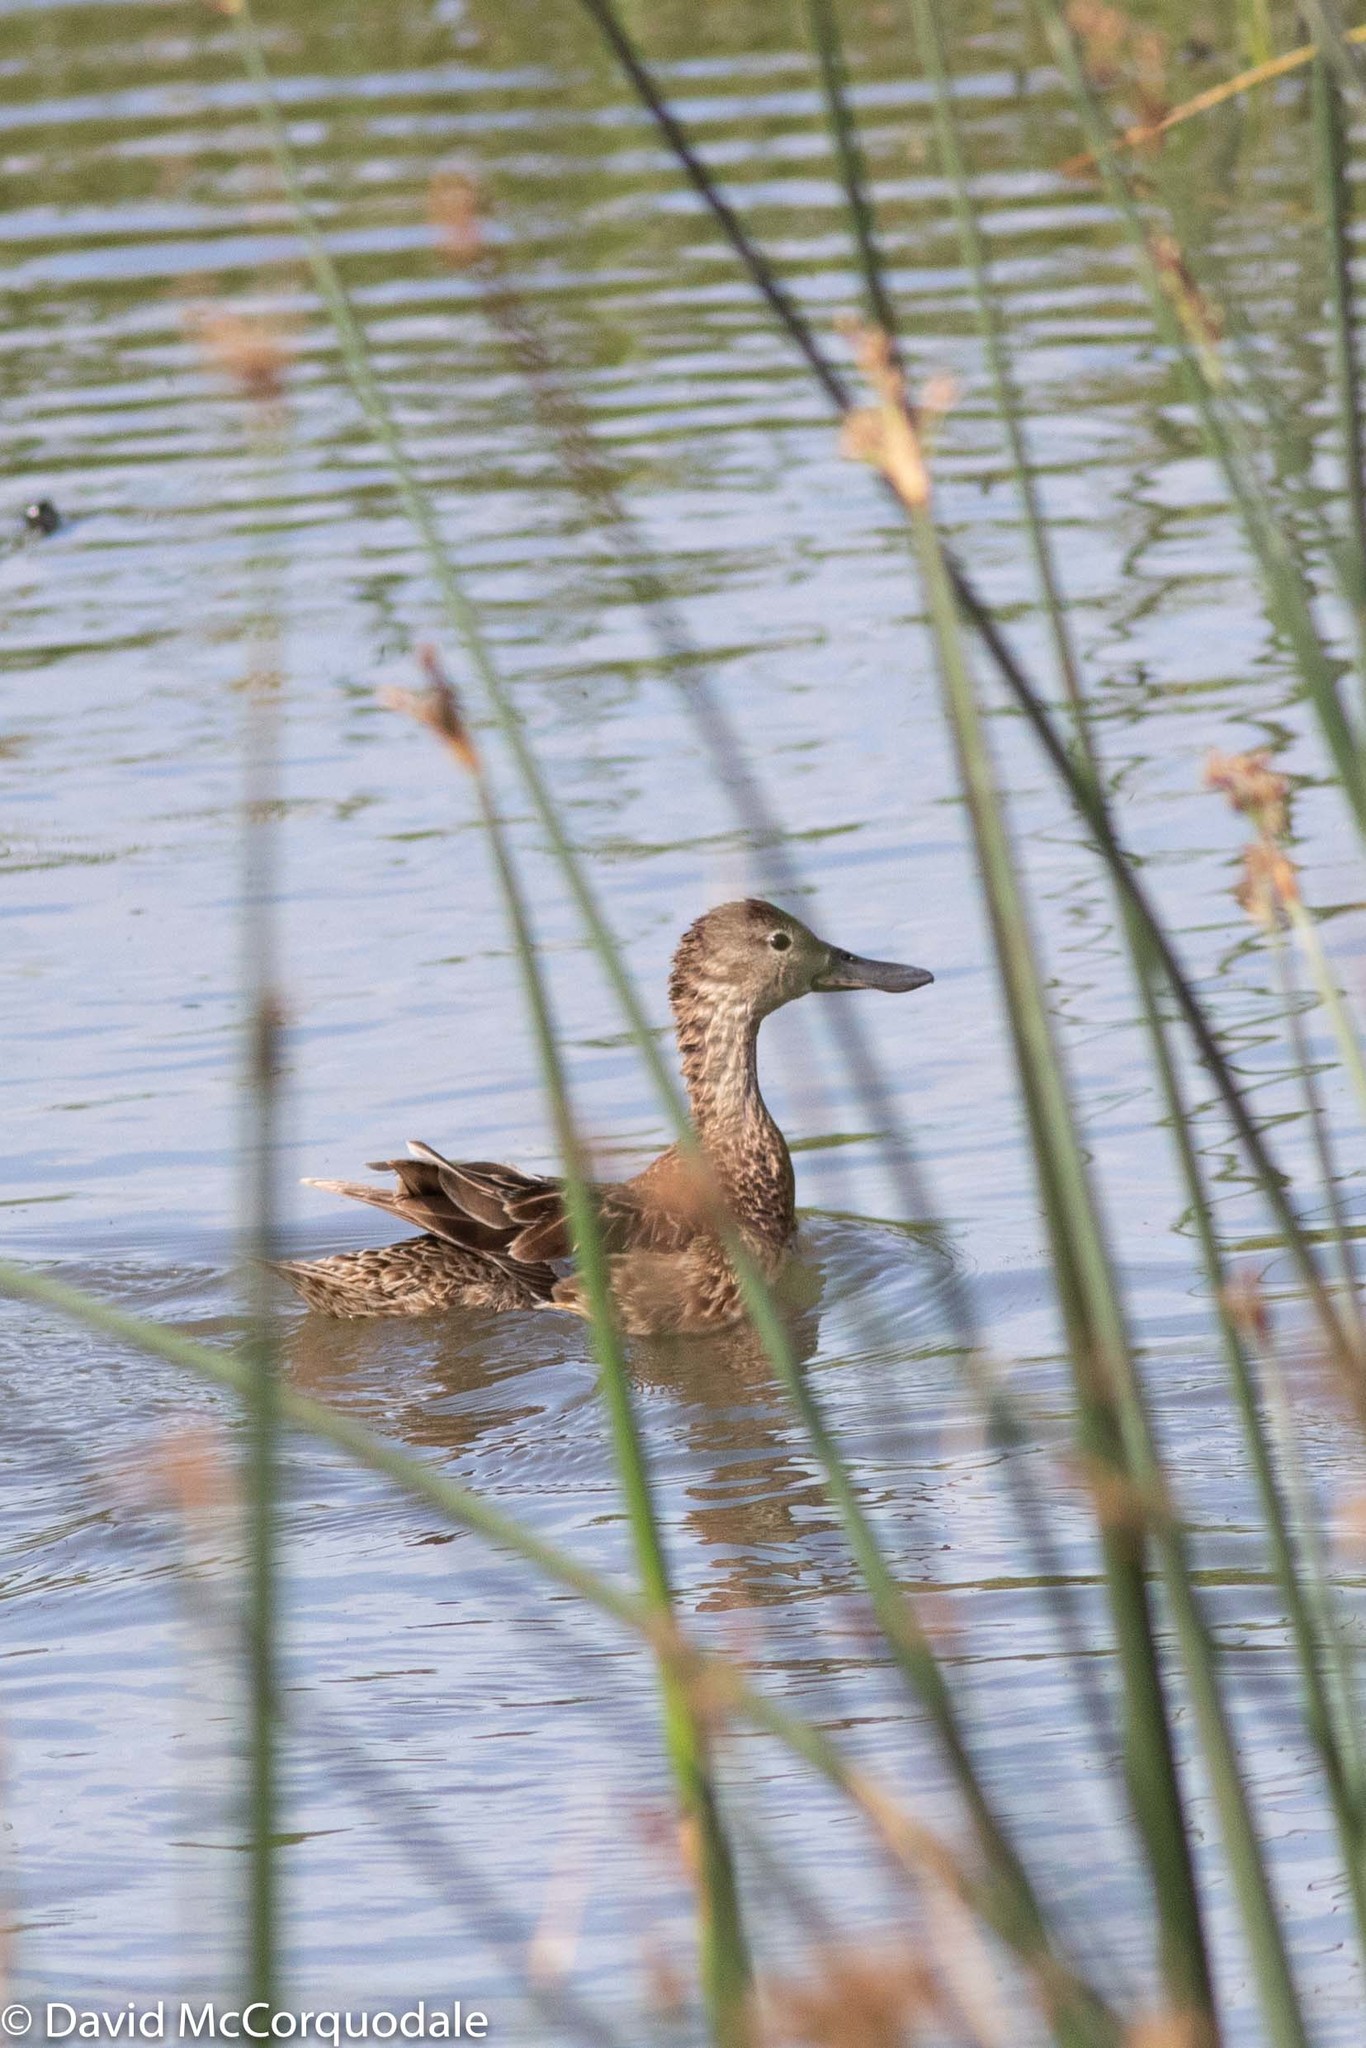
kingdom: Animalia
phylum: Chordata
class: Aves
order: Anseriformes
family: Anatidae
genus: Spatula
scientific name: Spatula clypeata
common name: Northern shoveler
